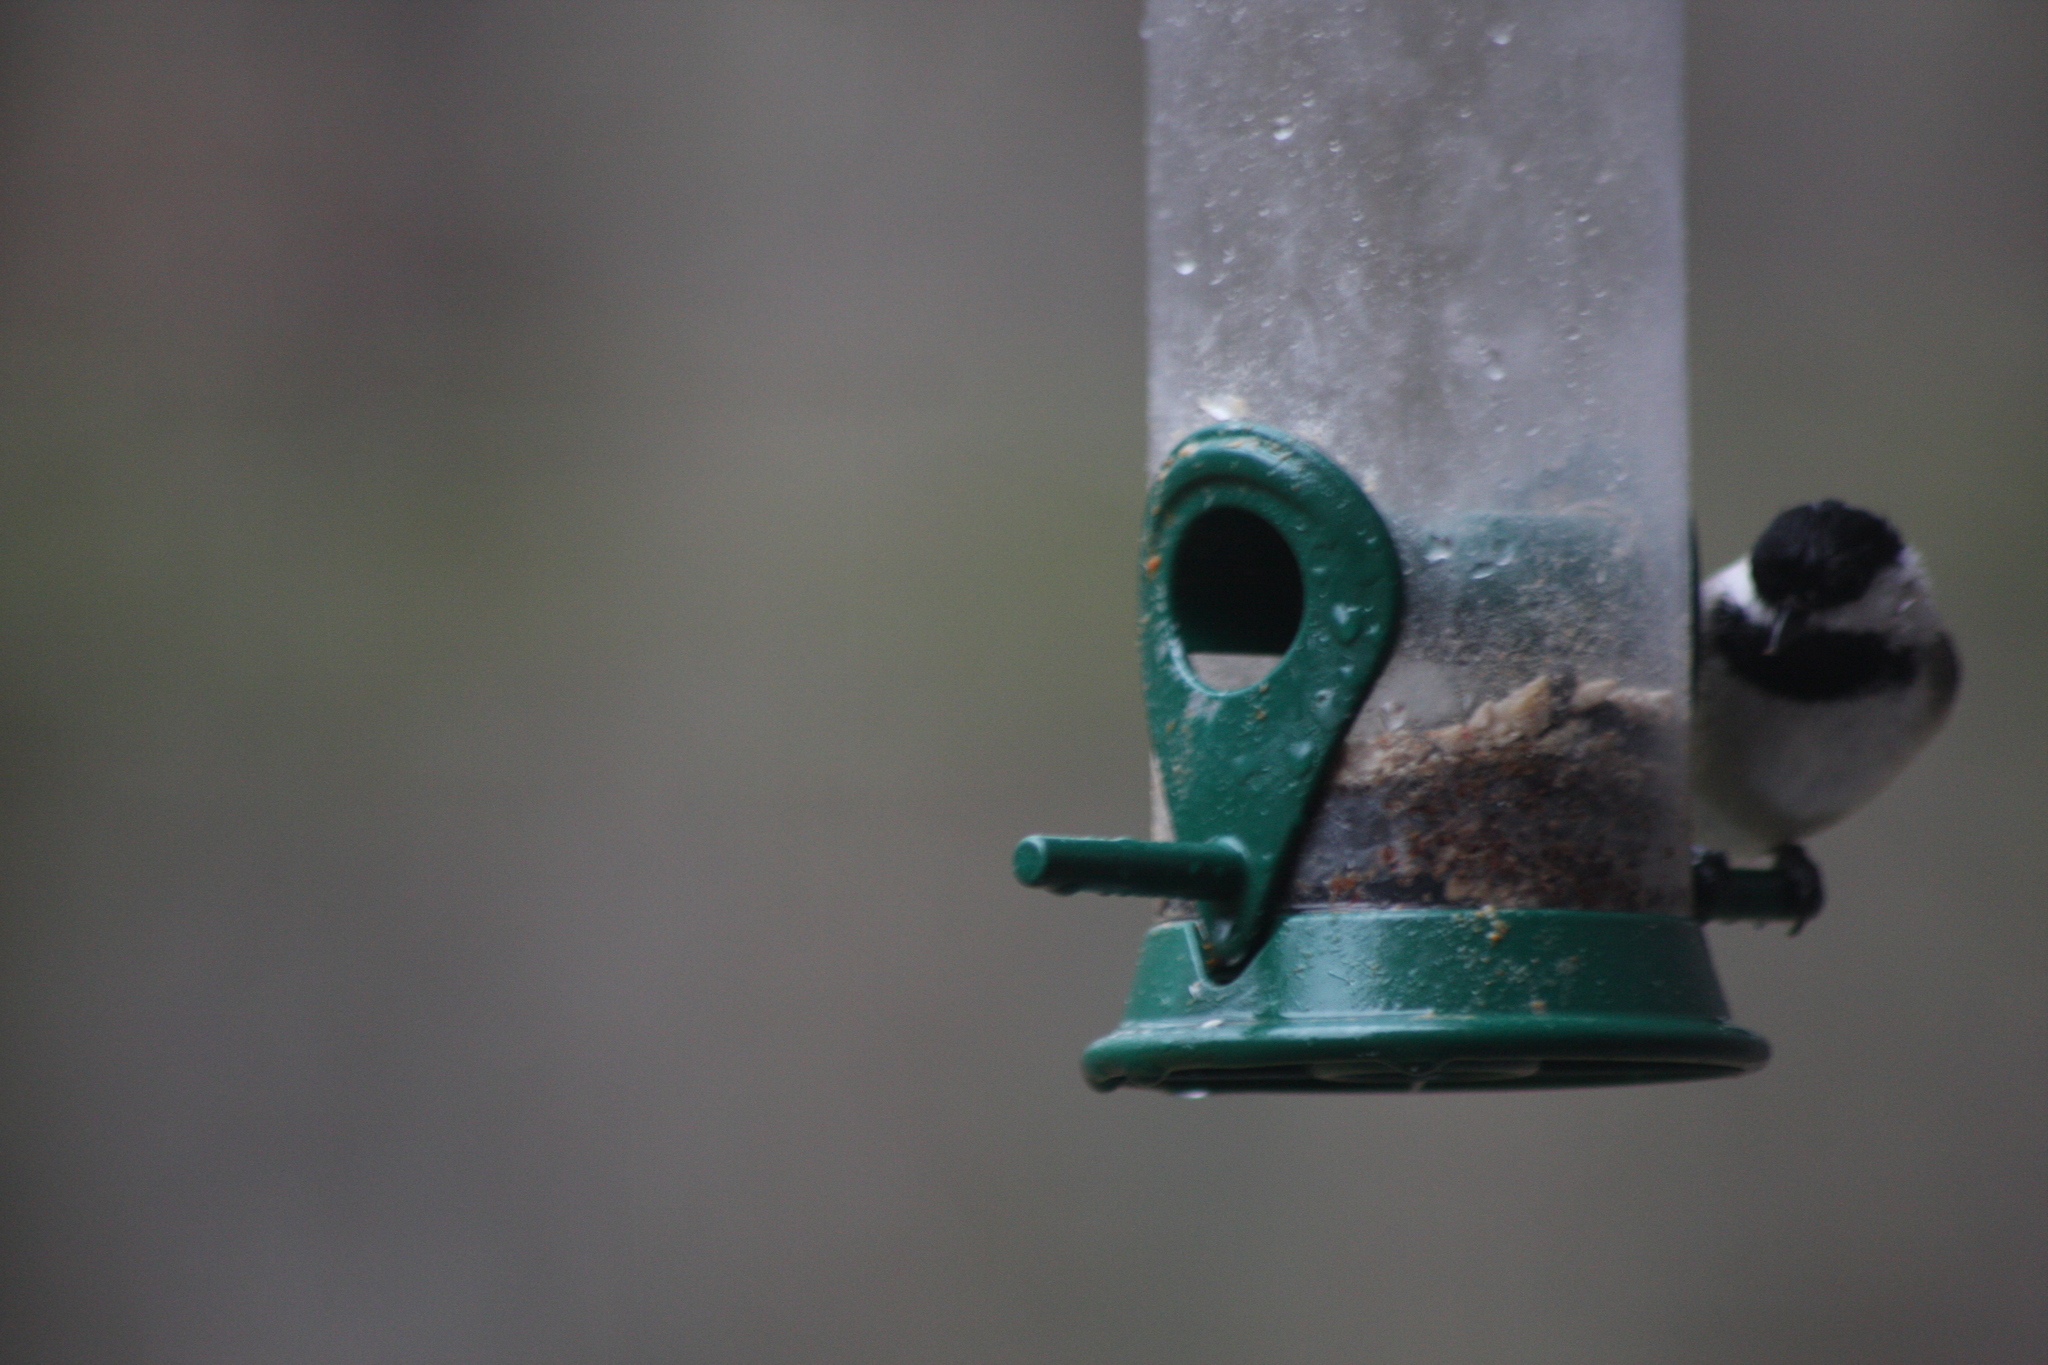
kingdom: Animalia
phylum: Chordata
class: Aves
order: Passeriformes
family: Paridae
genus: Poecile
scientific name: Poecile atricapillus
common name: Black-capped chickadee
